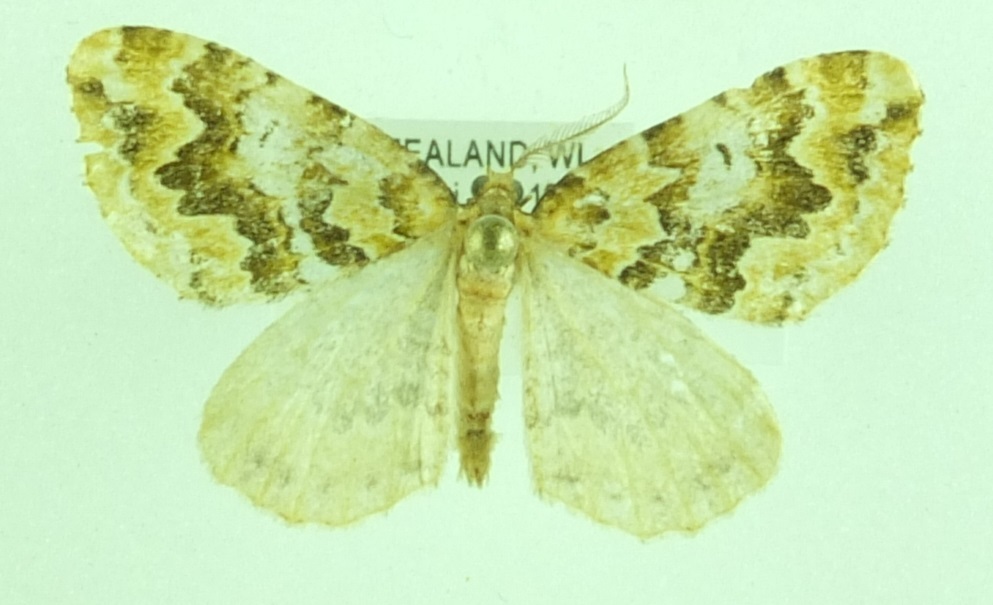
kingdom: Animalia
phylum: Arthropoda
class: Insecta
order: Lepidoptera
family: Geometridae
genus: Asaphodes
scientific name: Asaphodes beata
